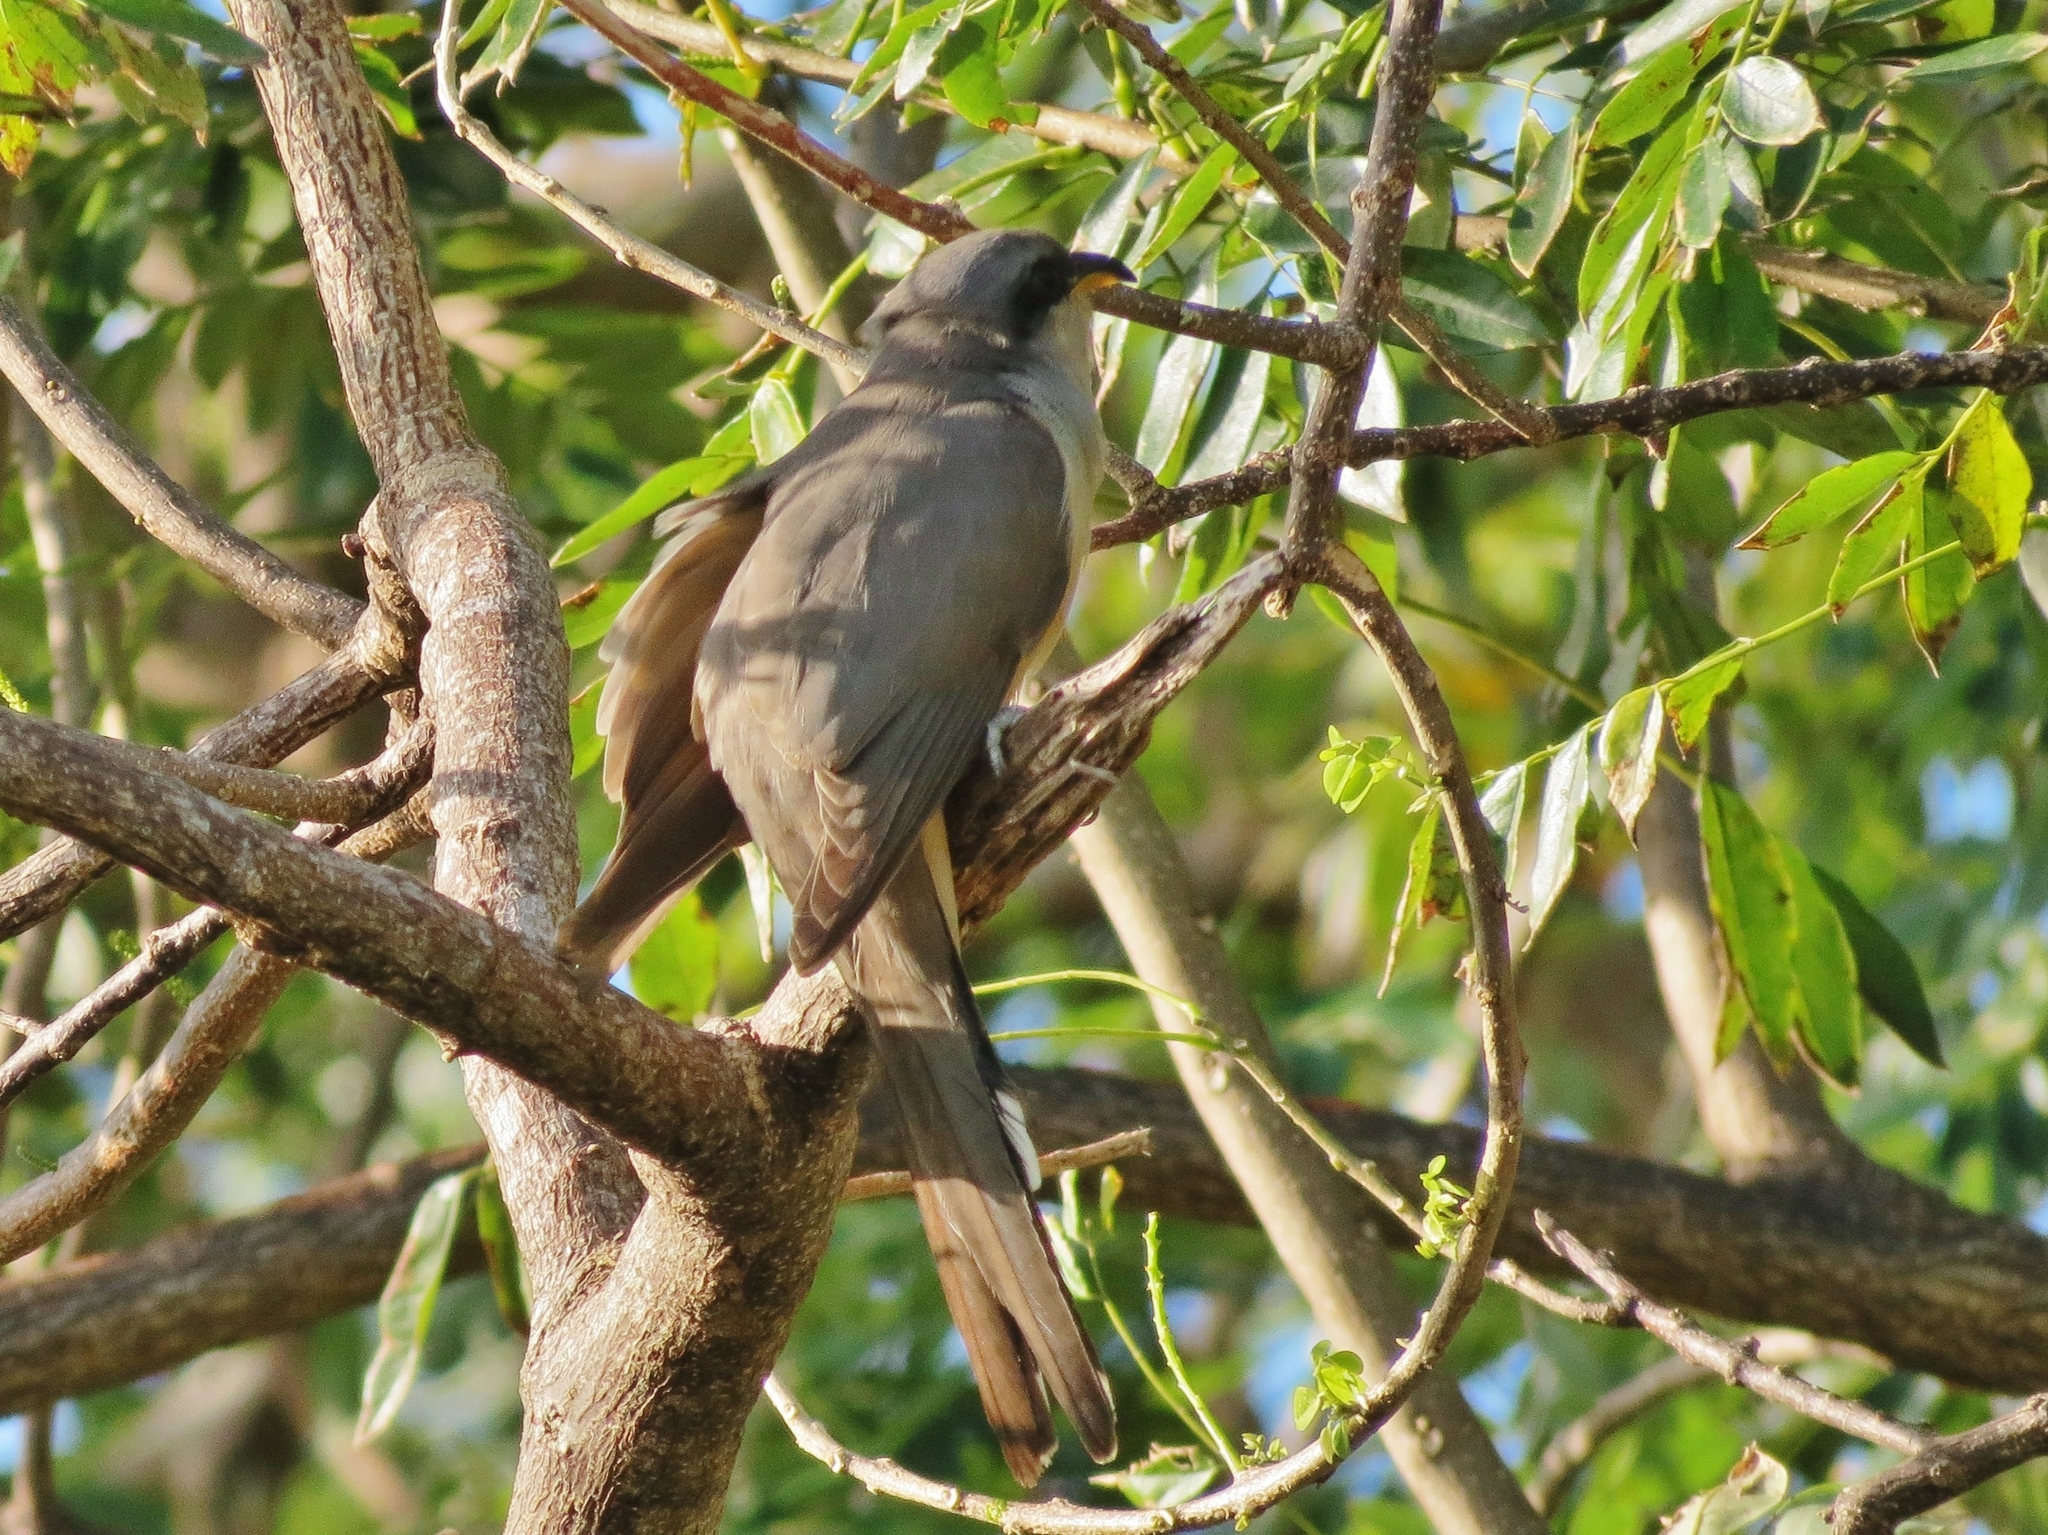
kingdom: Animalia
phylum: Chordata
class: Aves
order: Cuculiformes
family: Cuculidae
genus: Coccyzus
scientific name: Coccyzus minor
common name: Mangrove cuckoo
